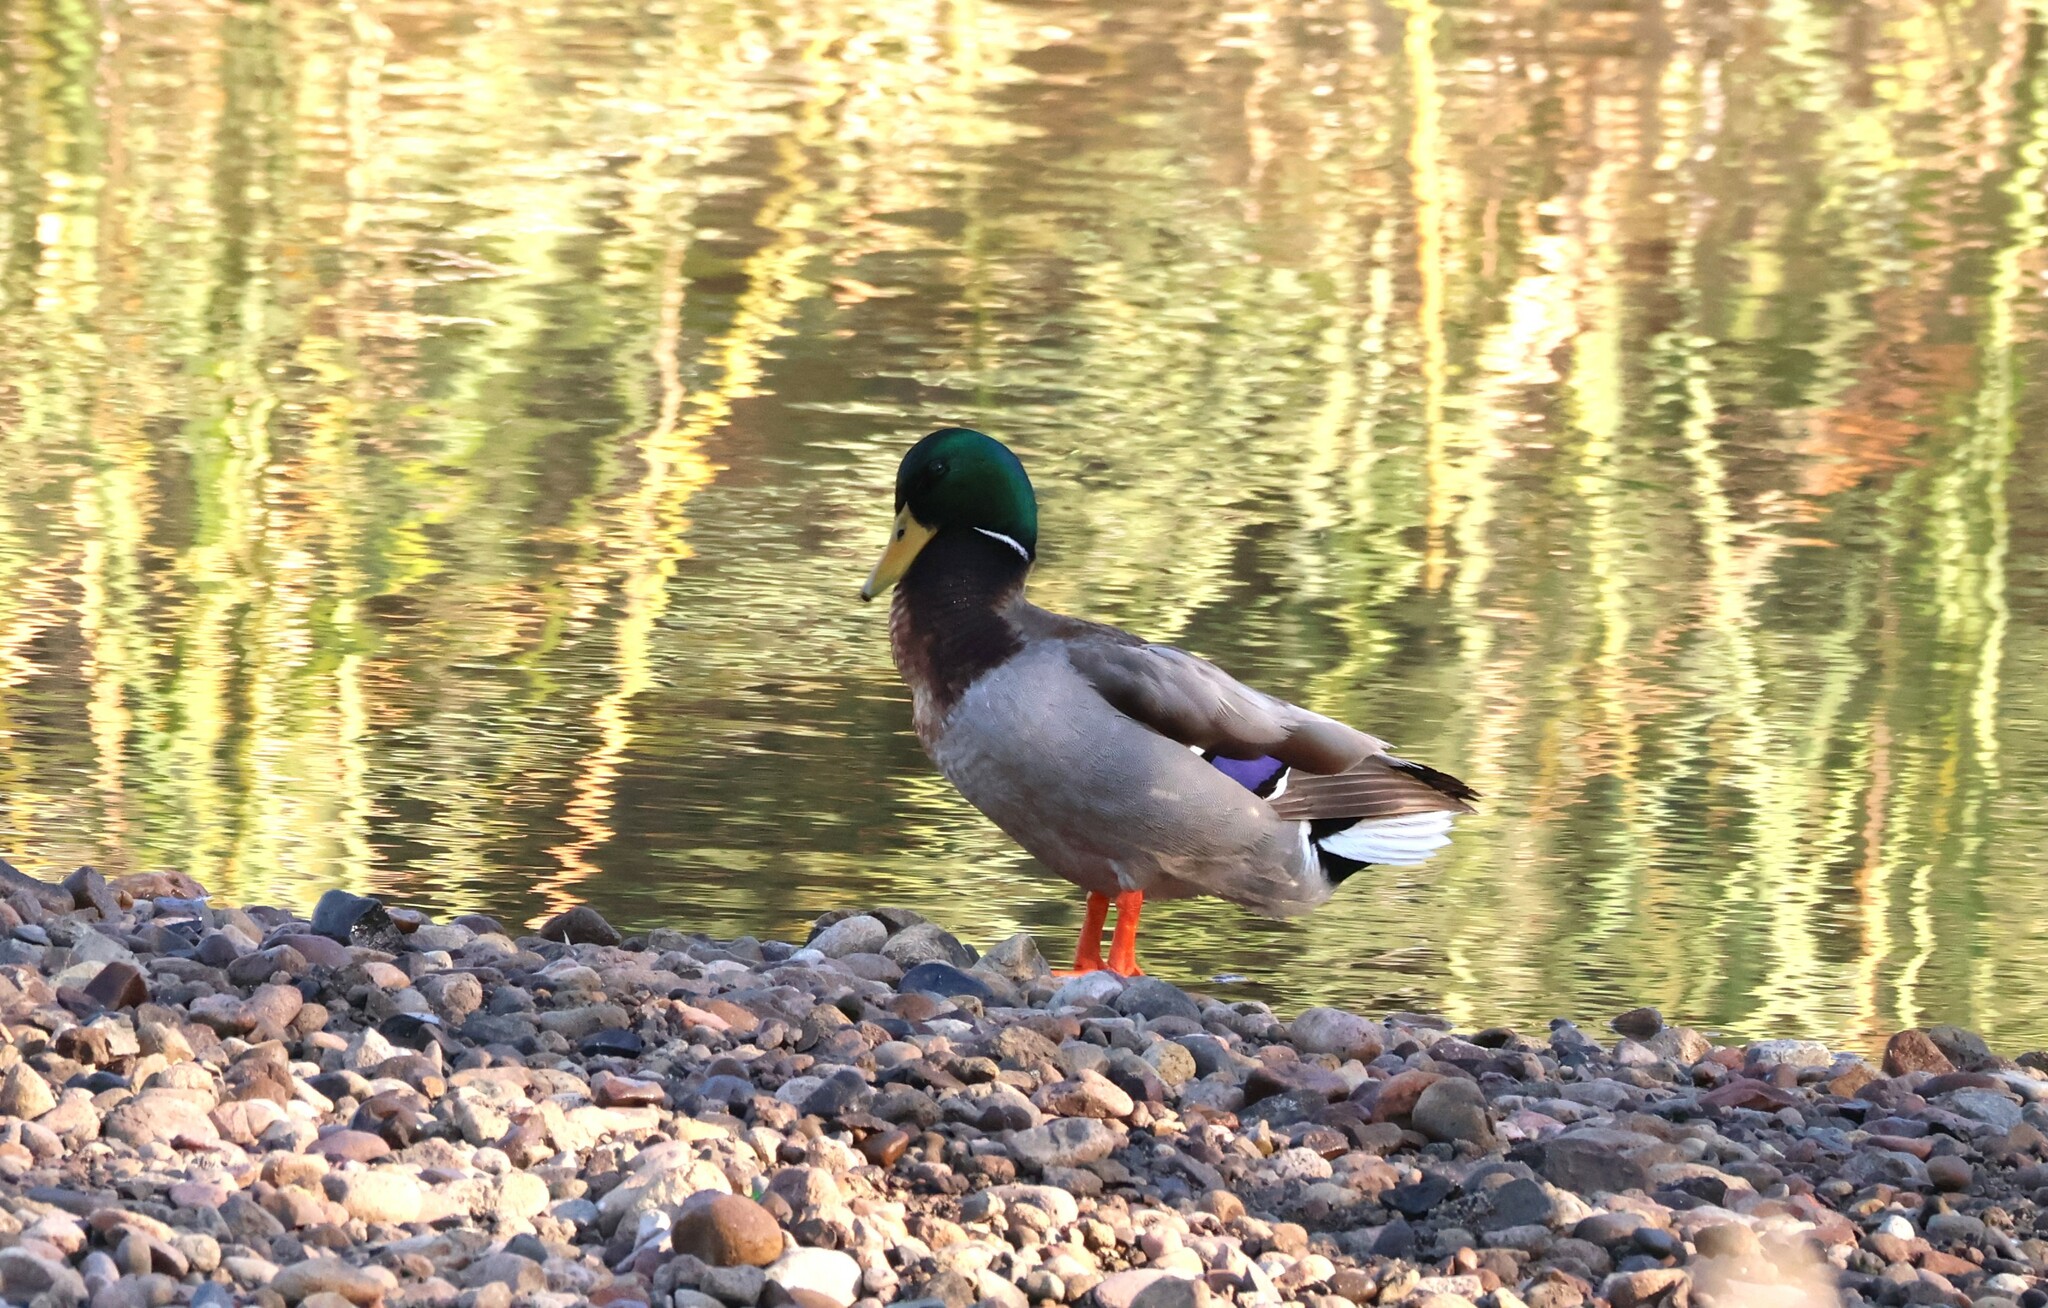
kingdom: Animalia
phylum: Chordata
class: Aves
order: Anseriformes
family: Anatidae
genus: Anas
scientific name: Anas platyrhynchos
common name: Mallard
